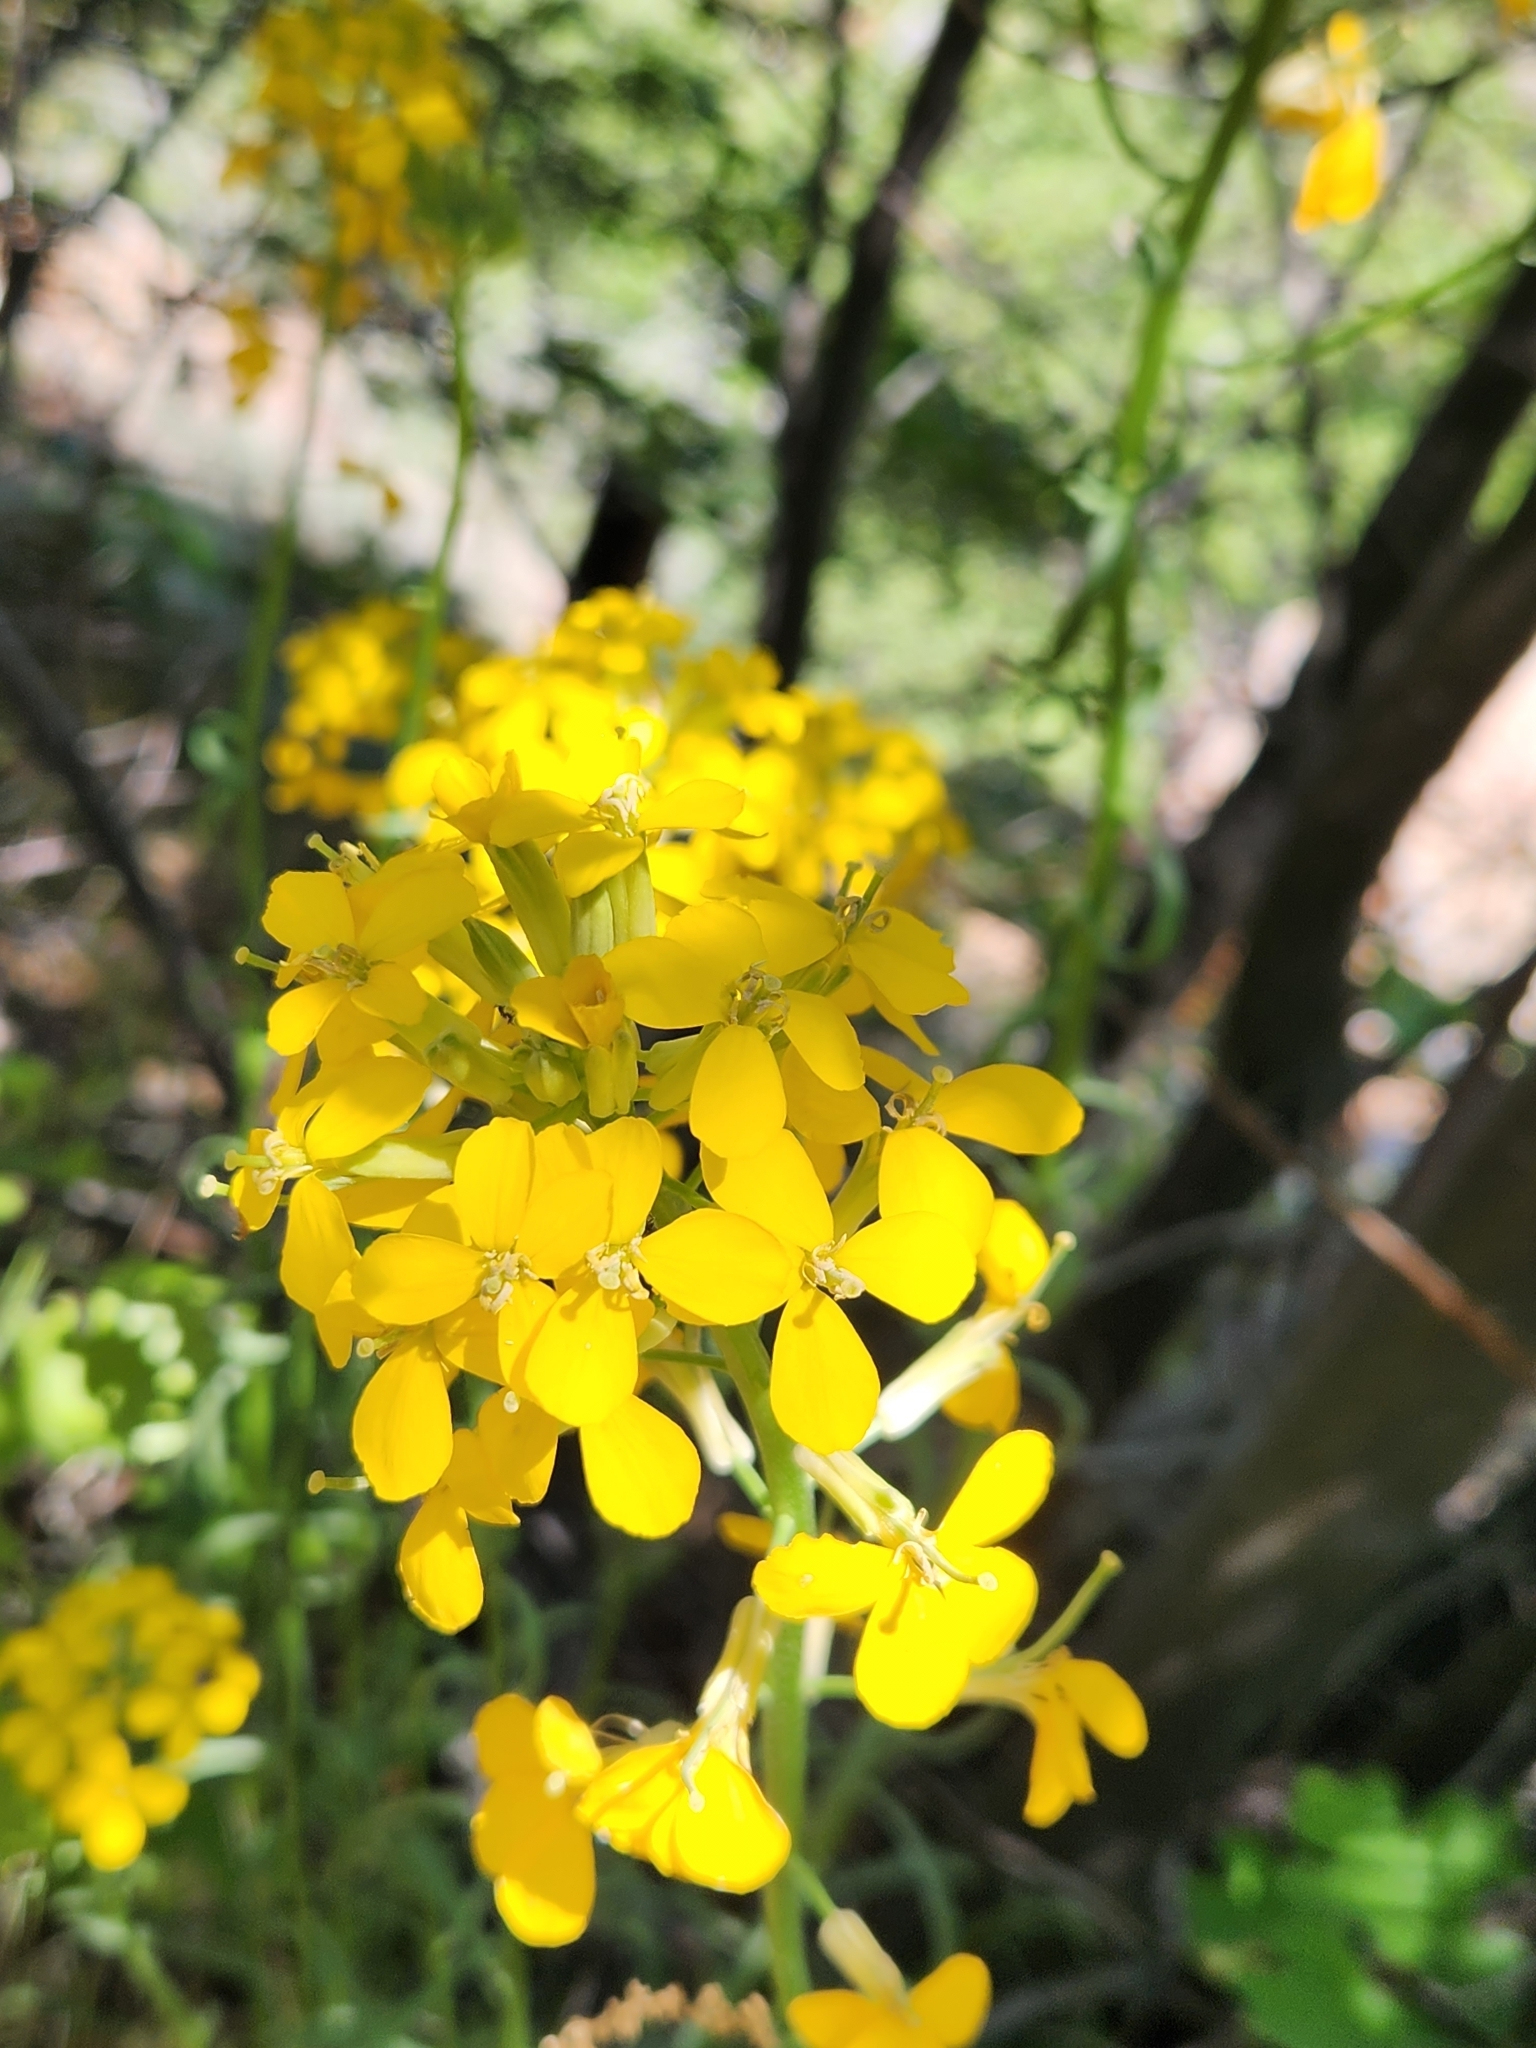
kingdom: Plantae
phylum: Tracheophyta
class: Magnoliopsida
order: Brassicales
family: Brassicaceae
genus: Erysimum
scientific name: Erysimum capitatum
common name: Western wallflower
